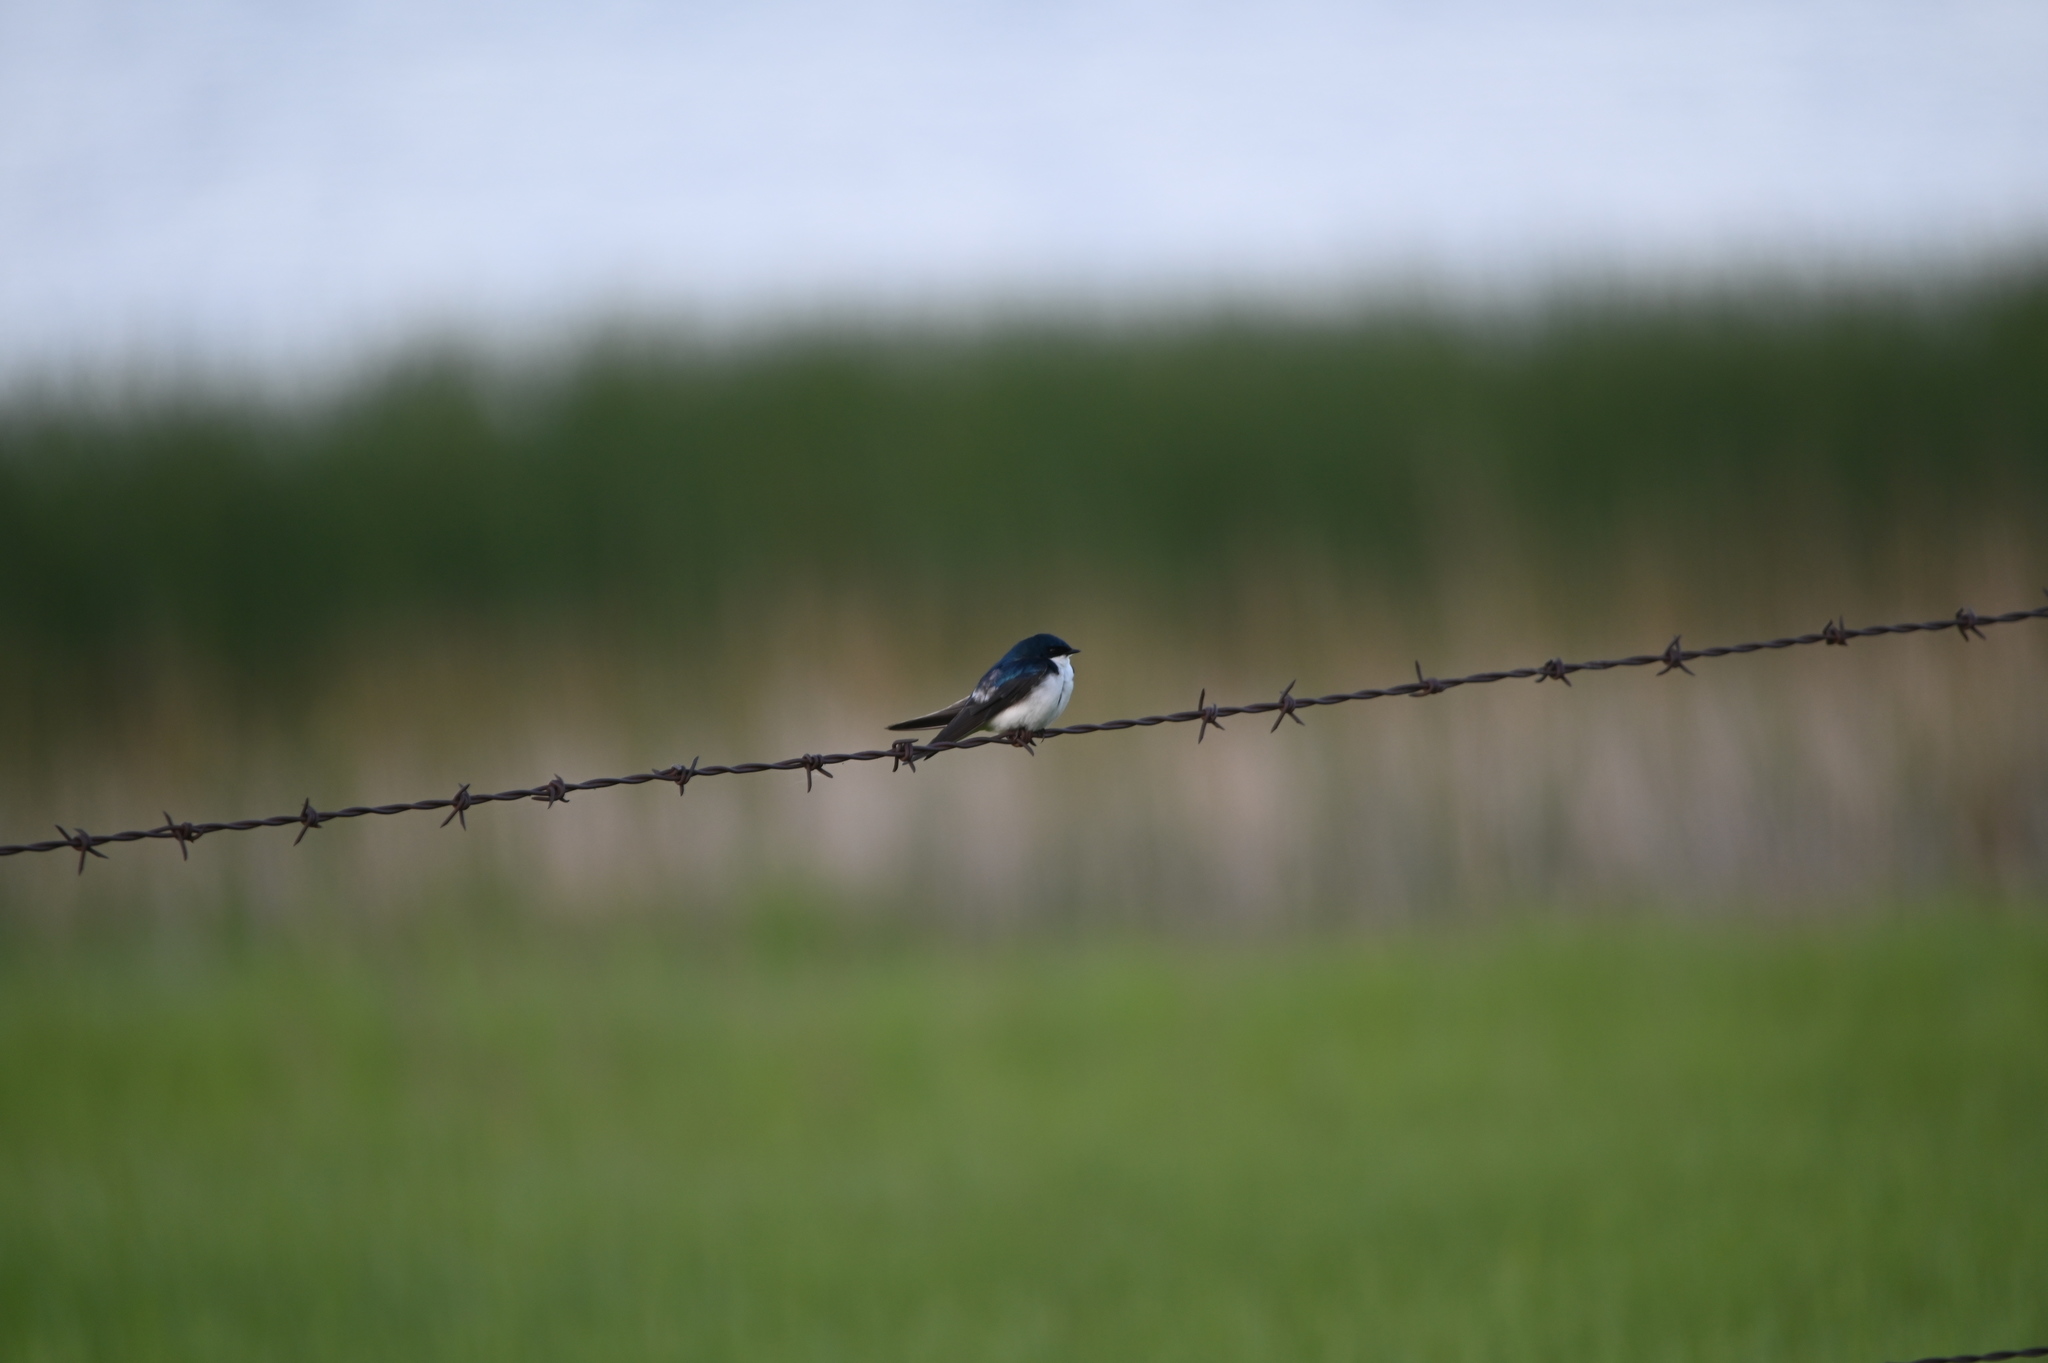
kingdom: Animalia
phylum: Chordata
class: Aves
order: Passeriformes
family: Hirundinidae
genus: Tachycineta
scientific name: Tachycineta bicolor
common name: Tree swallow
